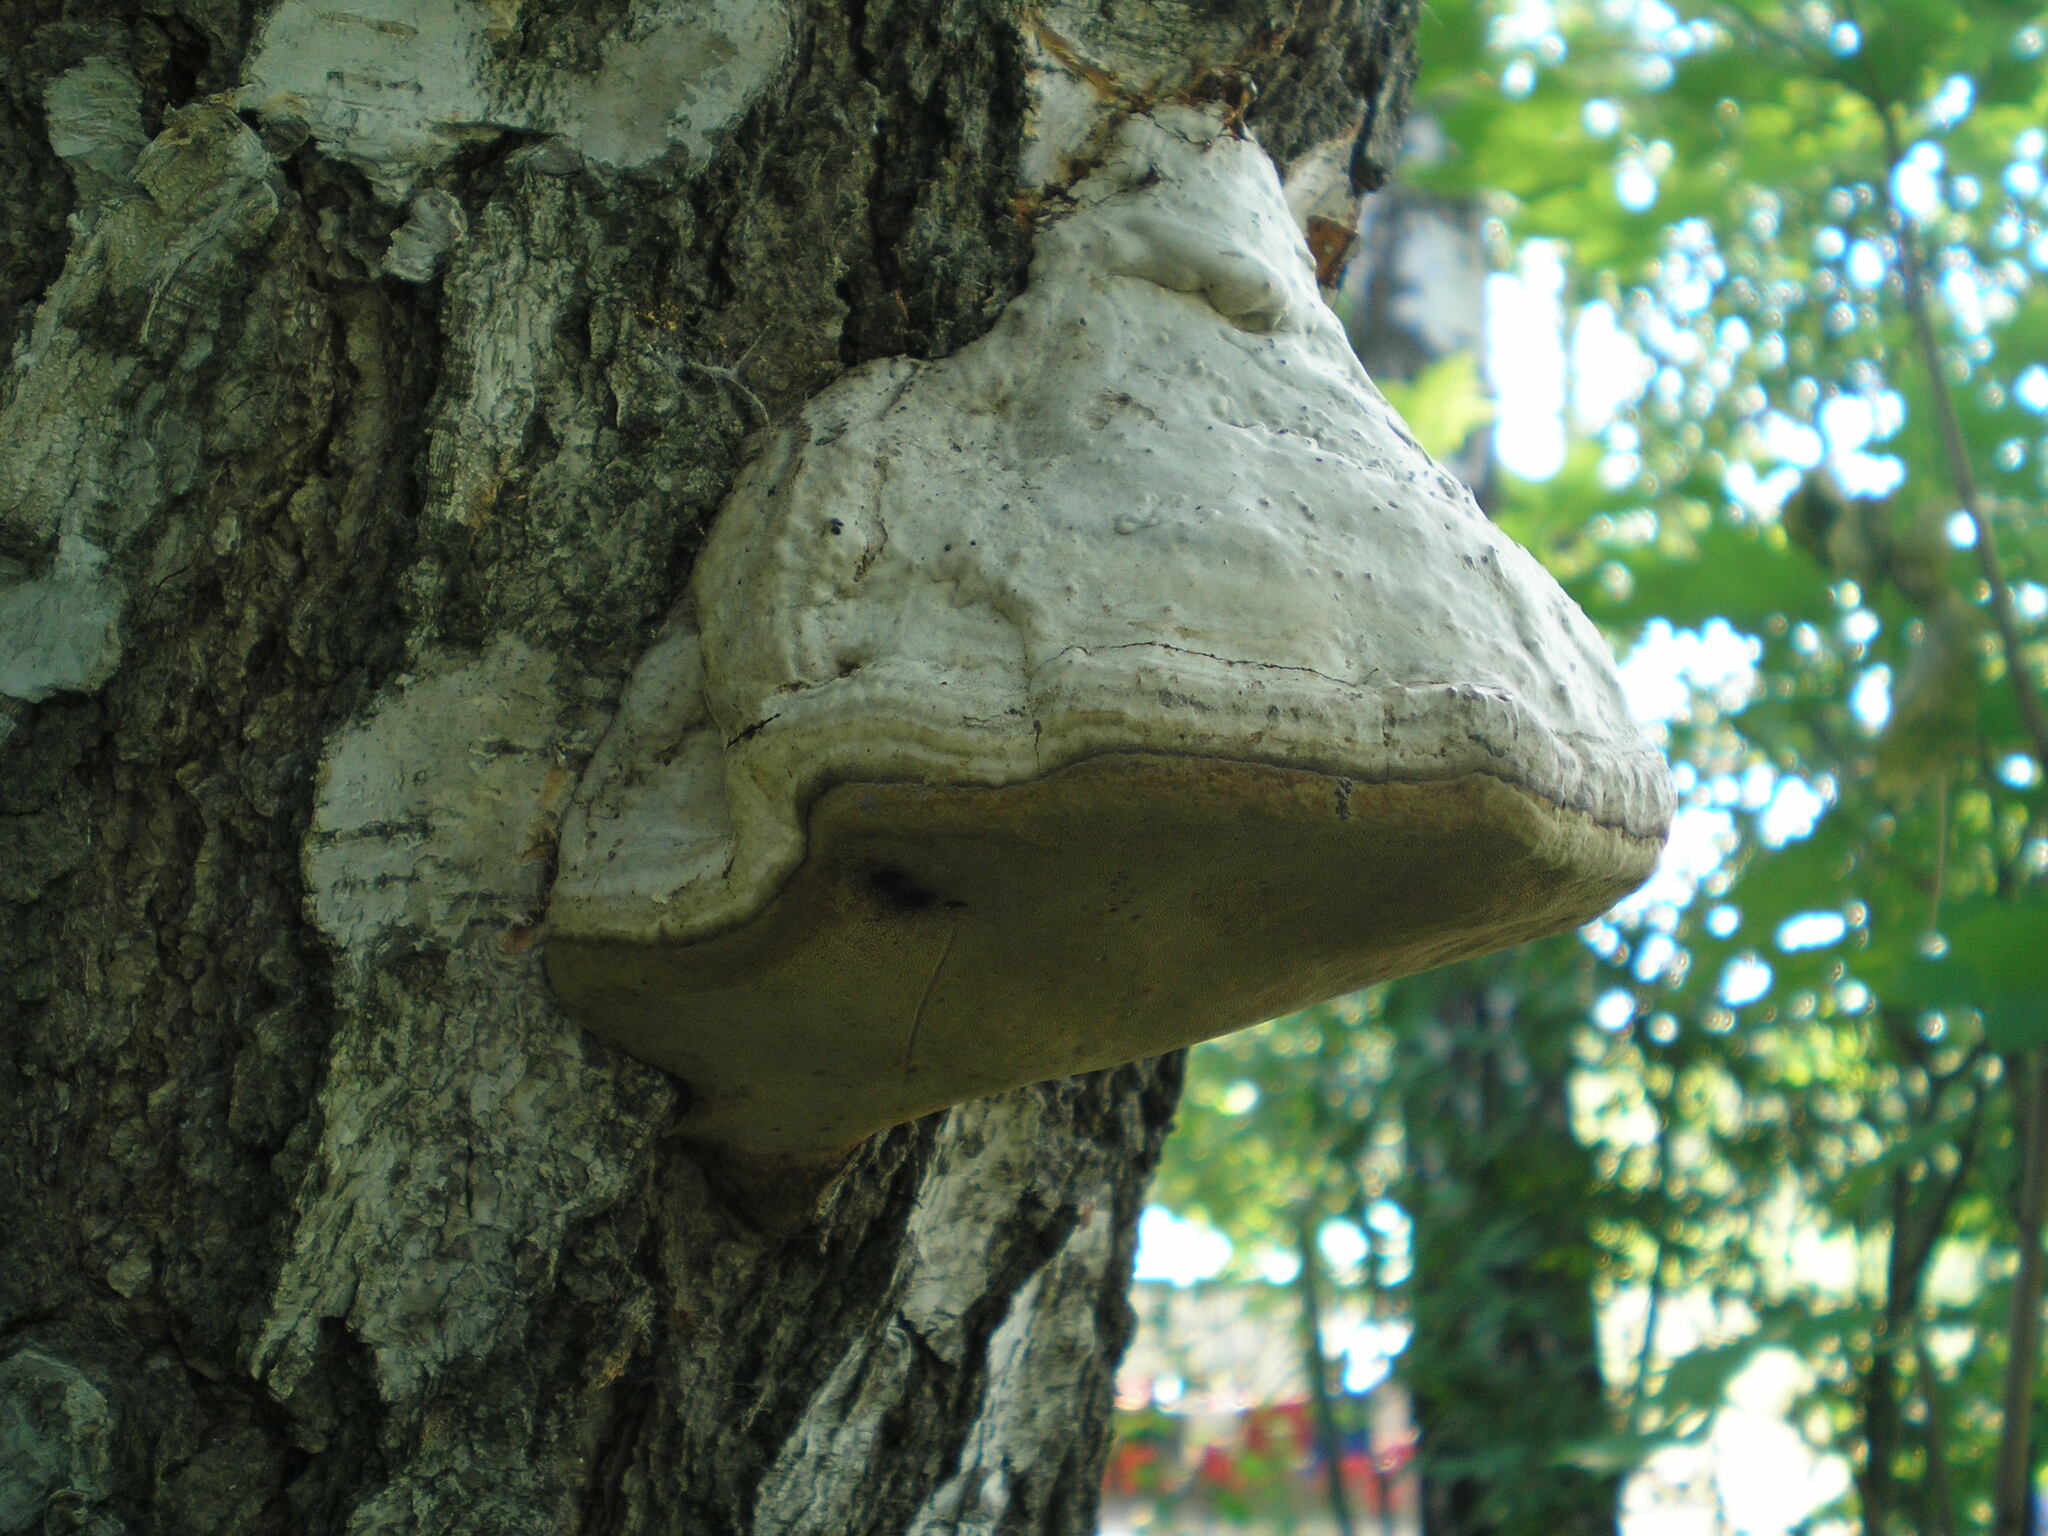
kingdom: Fungi
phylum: Basidiomycota
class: Agaricomycetes
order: Polyporales
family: Polyporaceae
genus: Fomes
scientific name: Fomes fomentarius
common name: Hoof fungus
